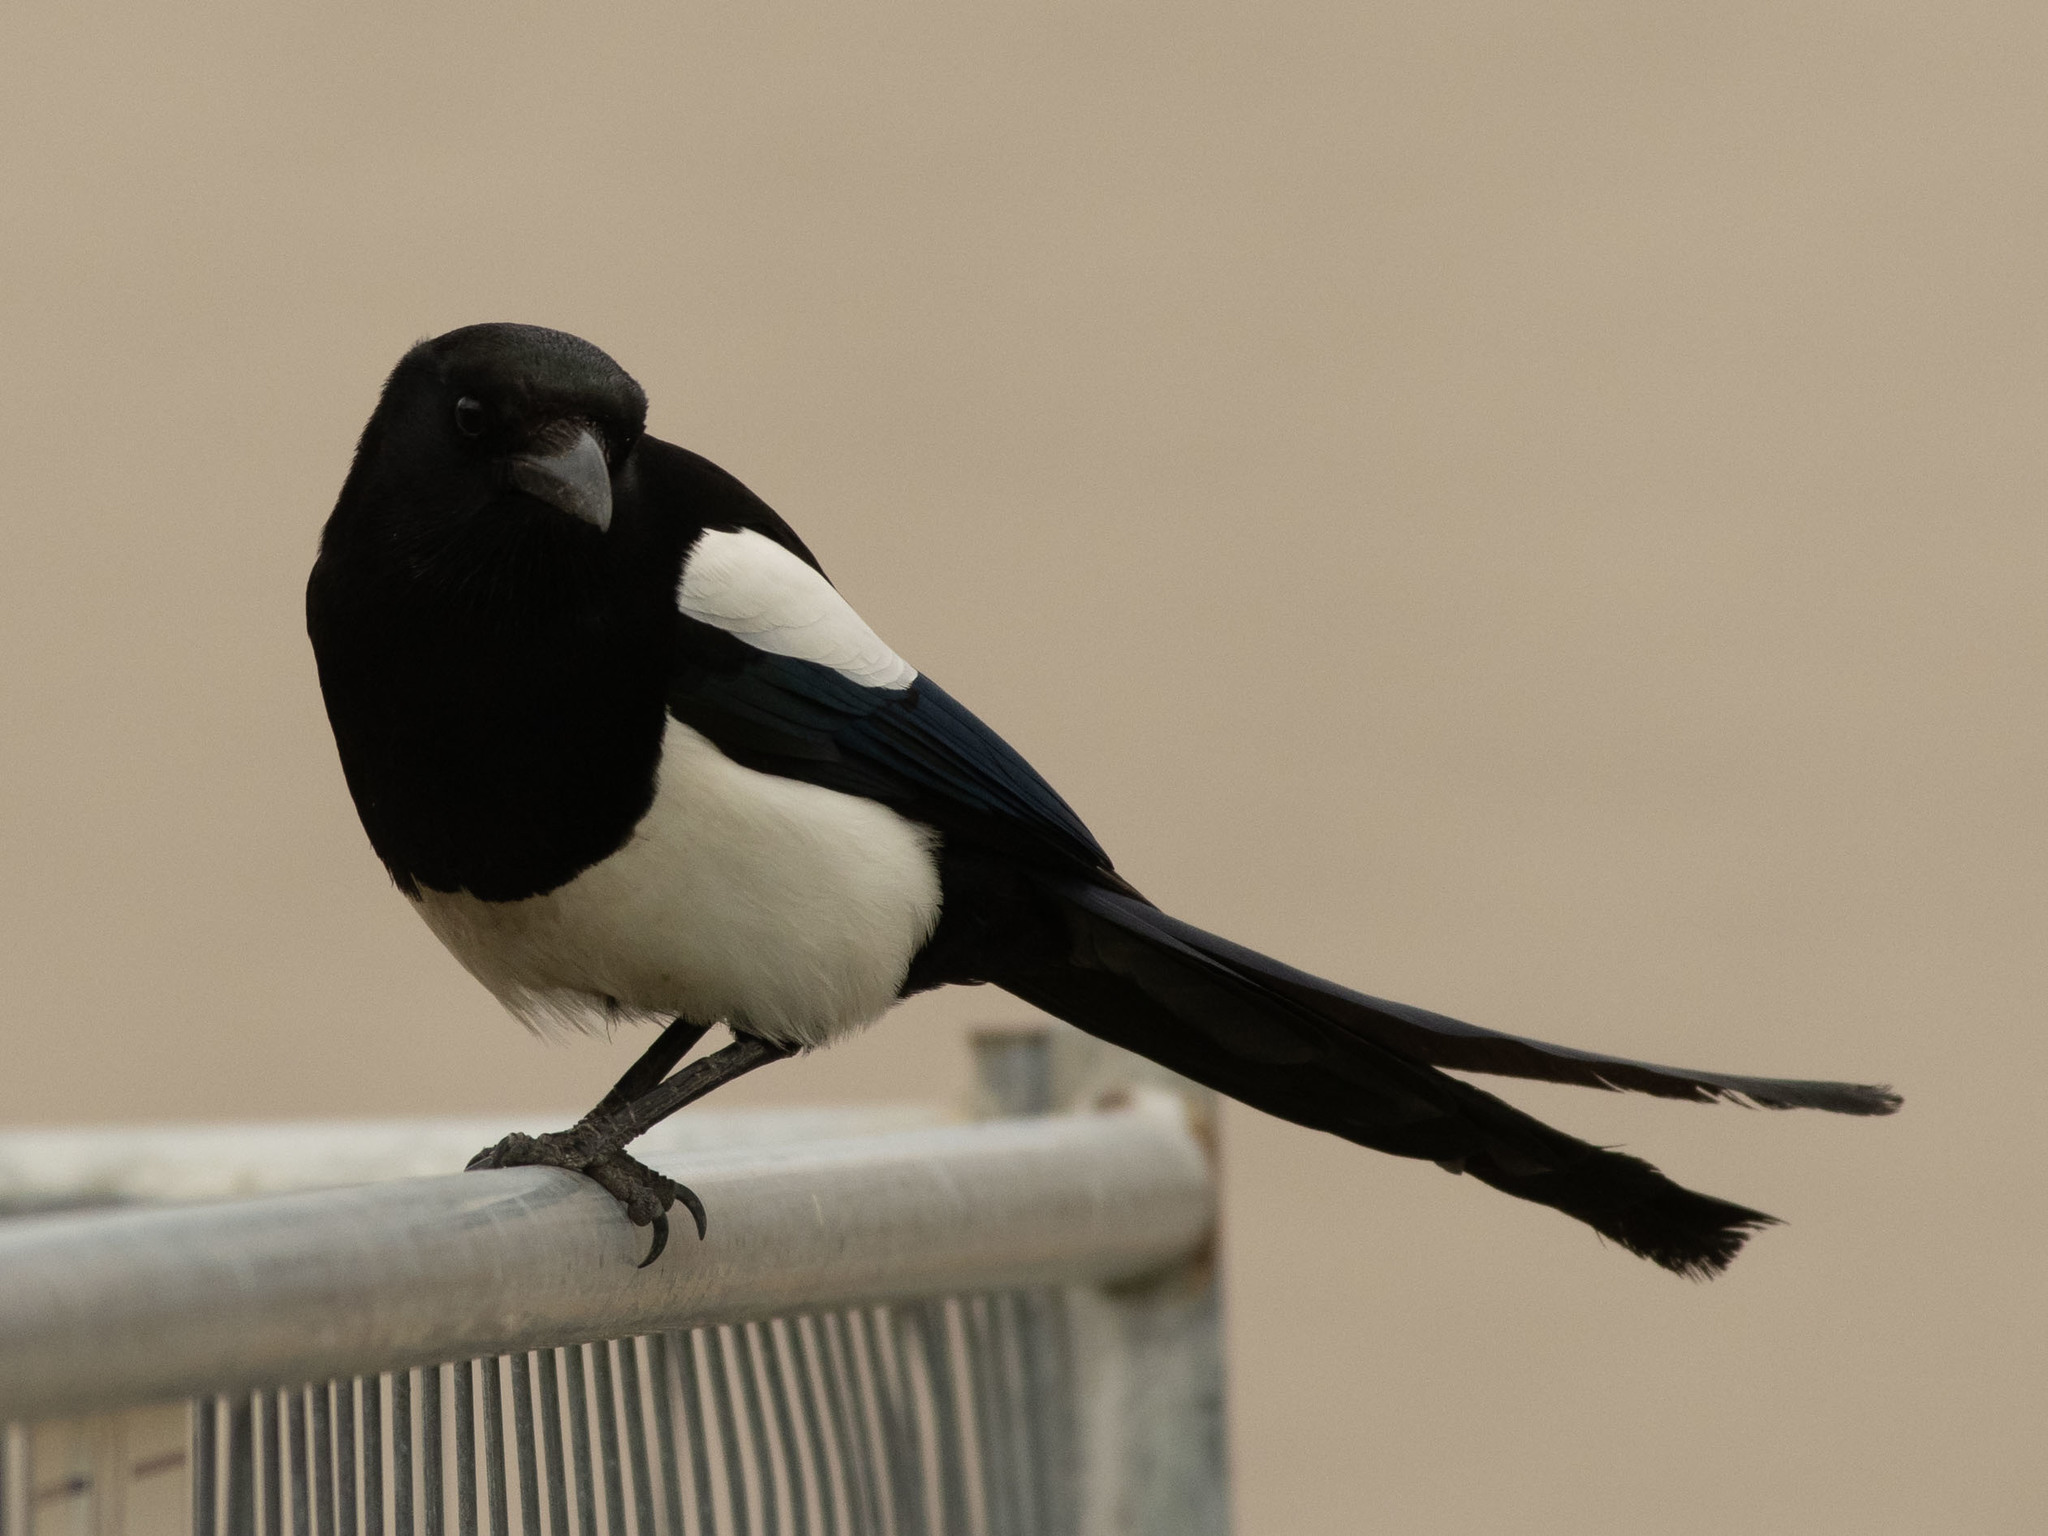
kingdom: Animalia
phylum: Chordata
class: Aves
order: Passeriformes
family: Corvidae
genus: Pica
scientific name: Pica hudsonia
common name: Black-billed magpie
